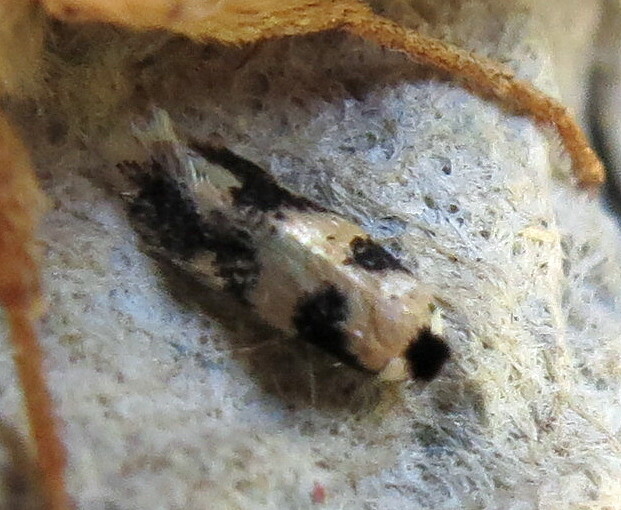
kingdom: Animalia
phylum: Arthropoda
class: Insecta
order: Lepidoptera
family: Nepticulidae
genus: Etainia
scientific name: Etainia decentella
